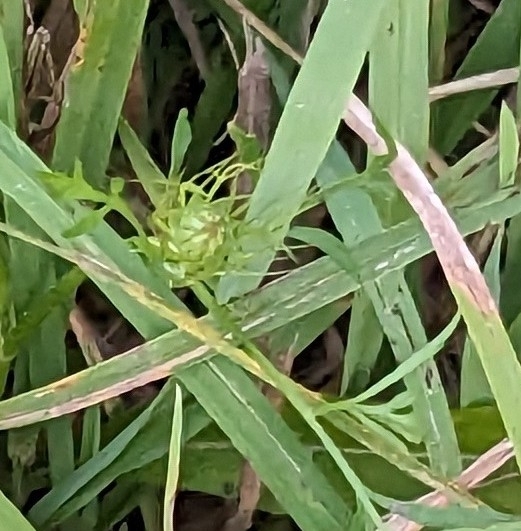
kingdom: Plantae
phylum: Tracheophyta
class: Magnoliopsida
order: Apiales
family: Apiaceae
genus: Daucus
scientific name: Daucus carota
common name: Wild carrot
